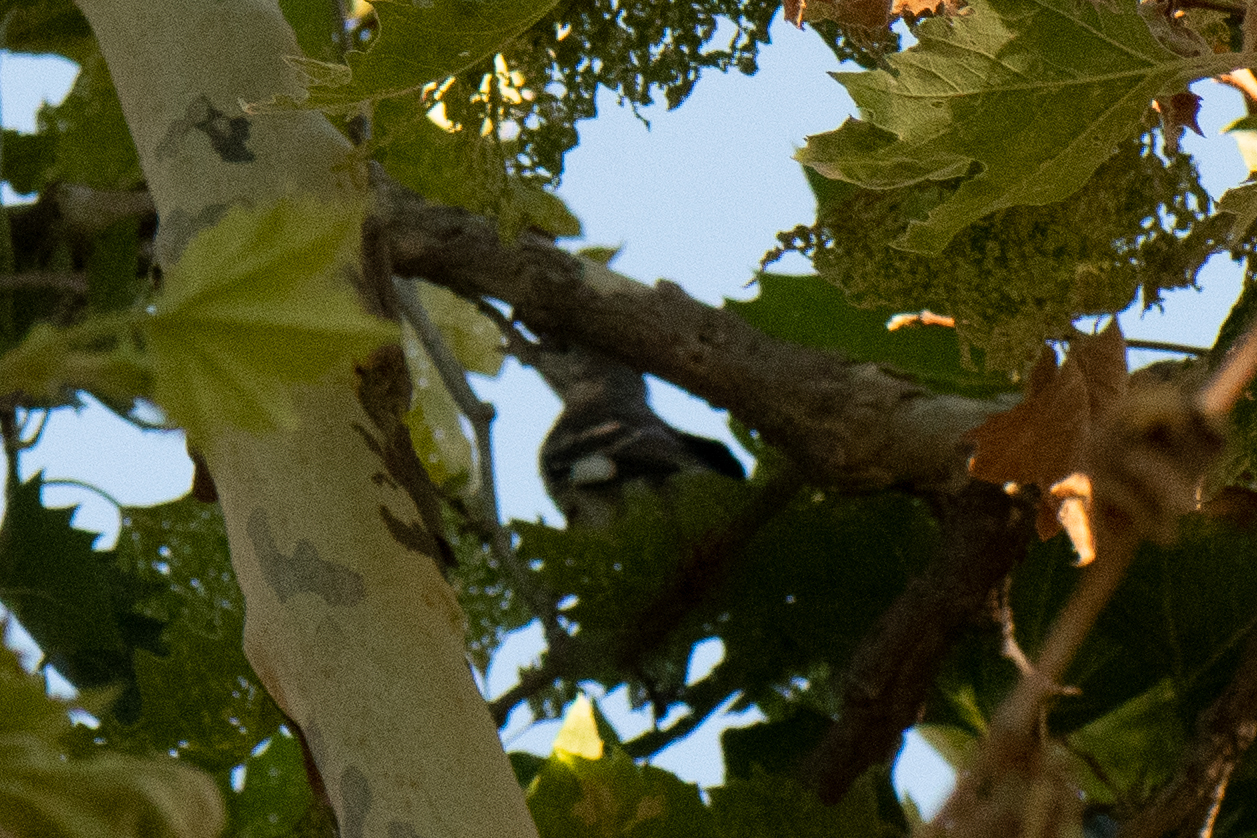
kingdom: Animalia
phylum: Chordata
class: Aves
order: Passeriformes
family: Mimidae
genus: Mimus
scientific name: Mimus polyglottos
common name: Northern mockingbird
